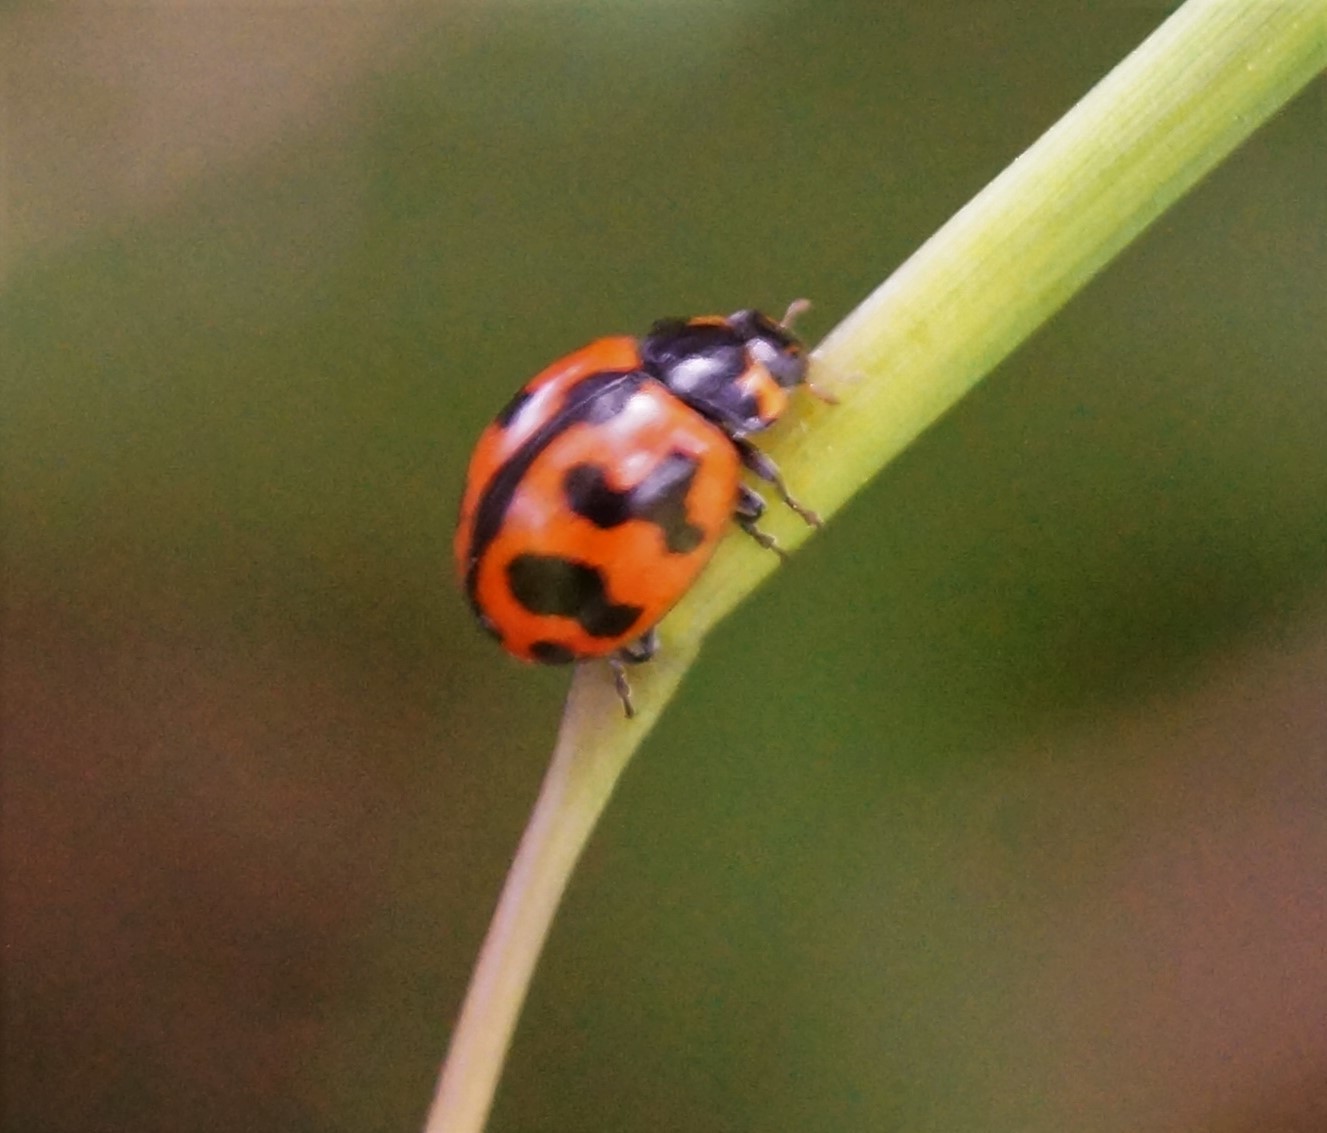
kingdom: Animalia
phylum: Arthropoda
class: Insecta
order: Coleoptera
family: Coccinellidae
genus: Coccinella
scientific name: Coccinella transversalis
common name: Transverse lady beetle
